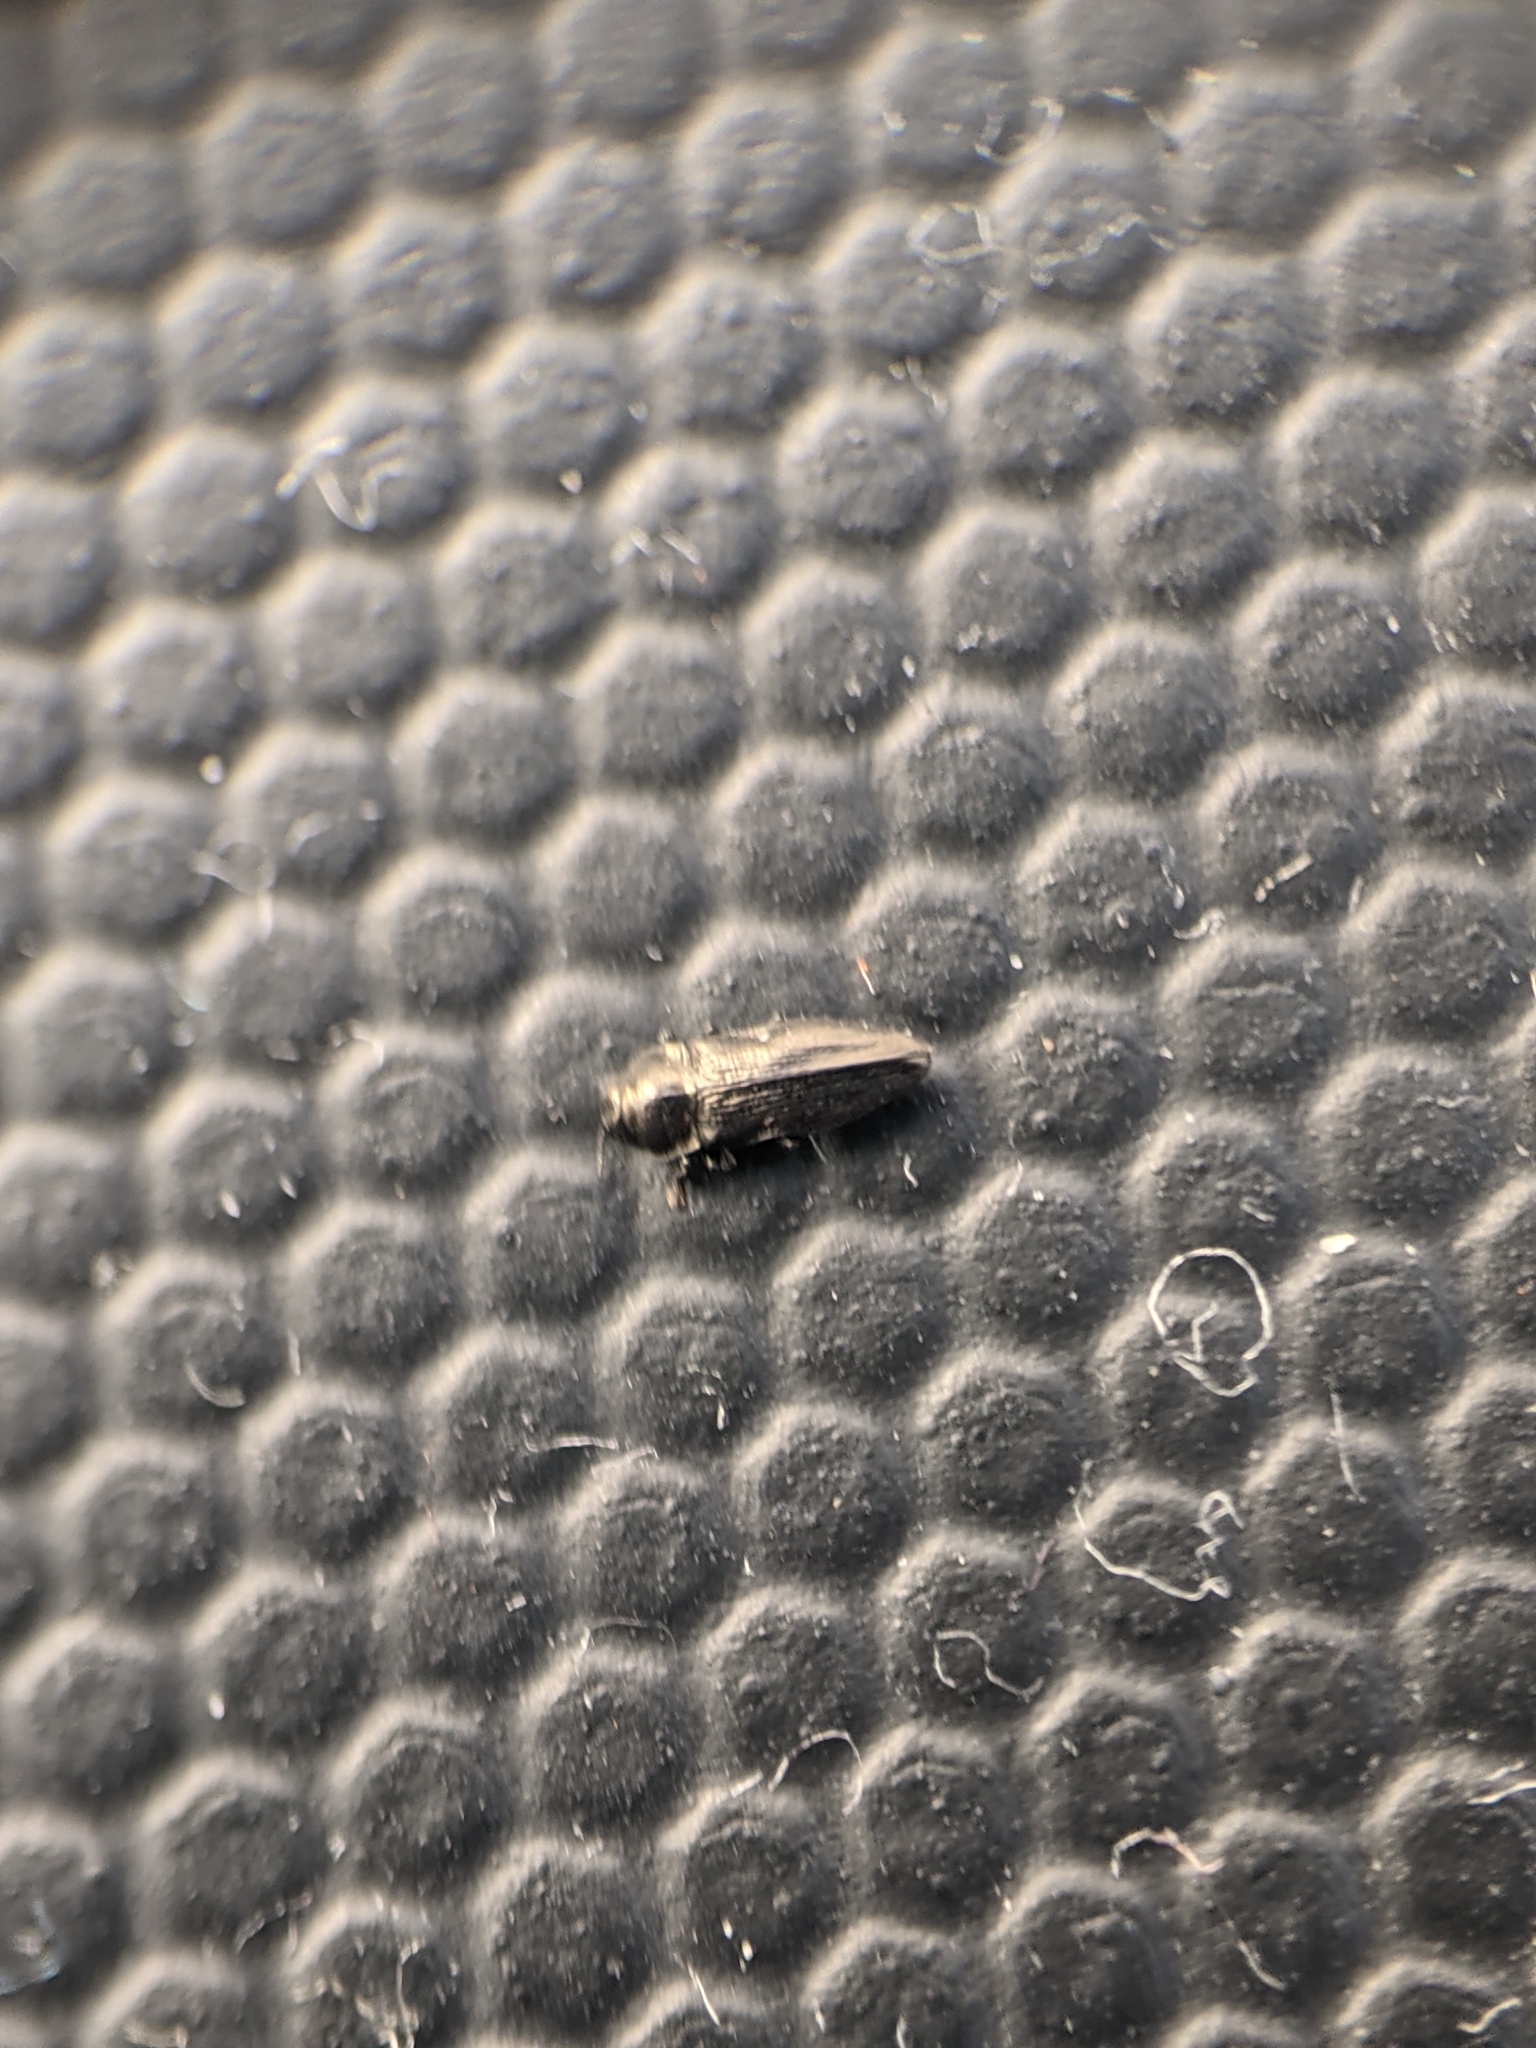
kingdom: Animalia
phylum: Arthropoda
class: Insecta
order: Coleoptera
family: Buprestidae
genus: Aphanisticus
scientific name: Aphanisticus cochinchinae
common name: Metallic wood-boring beetle
